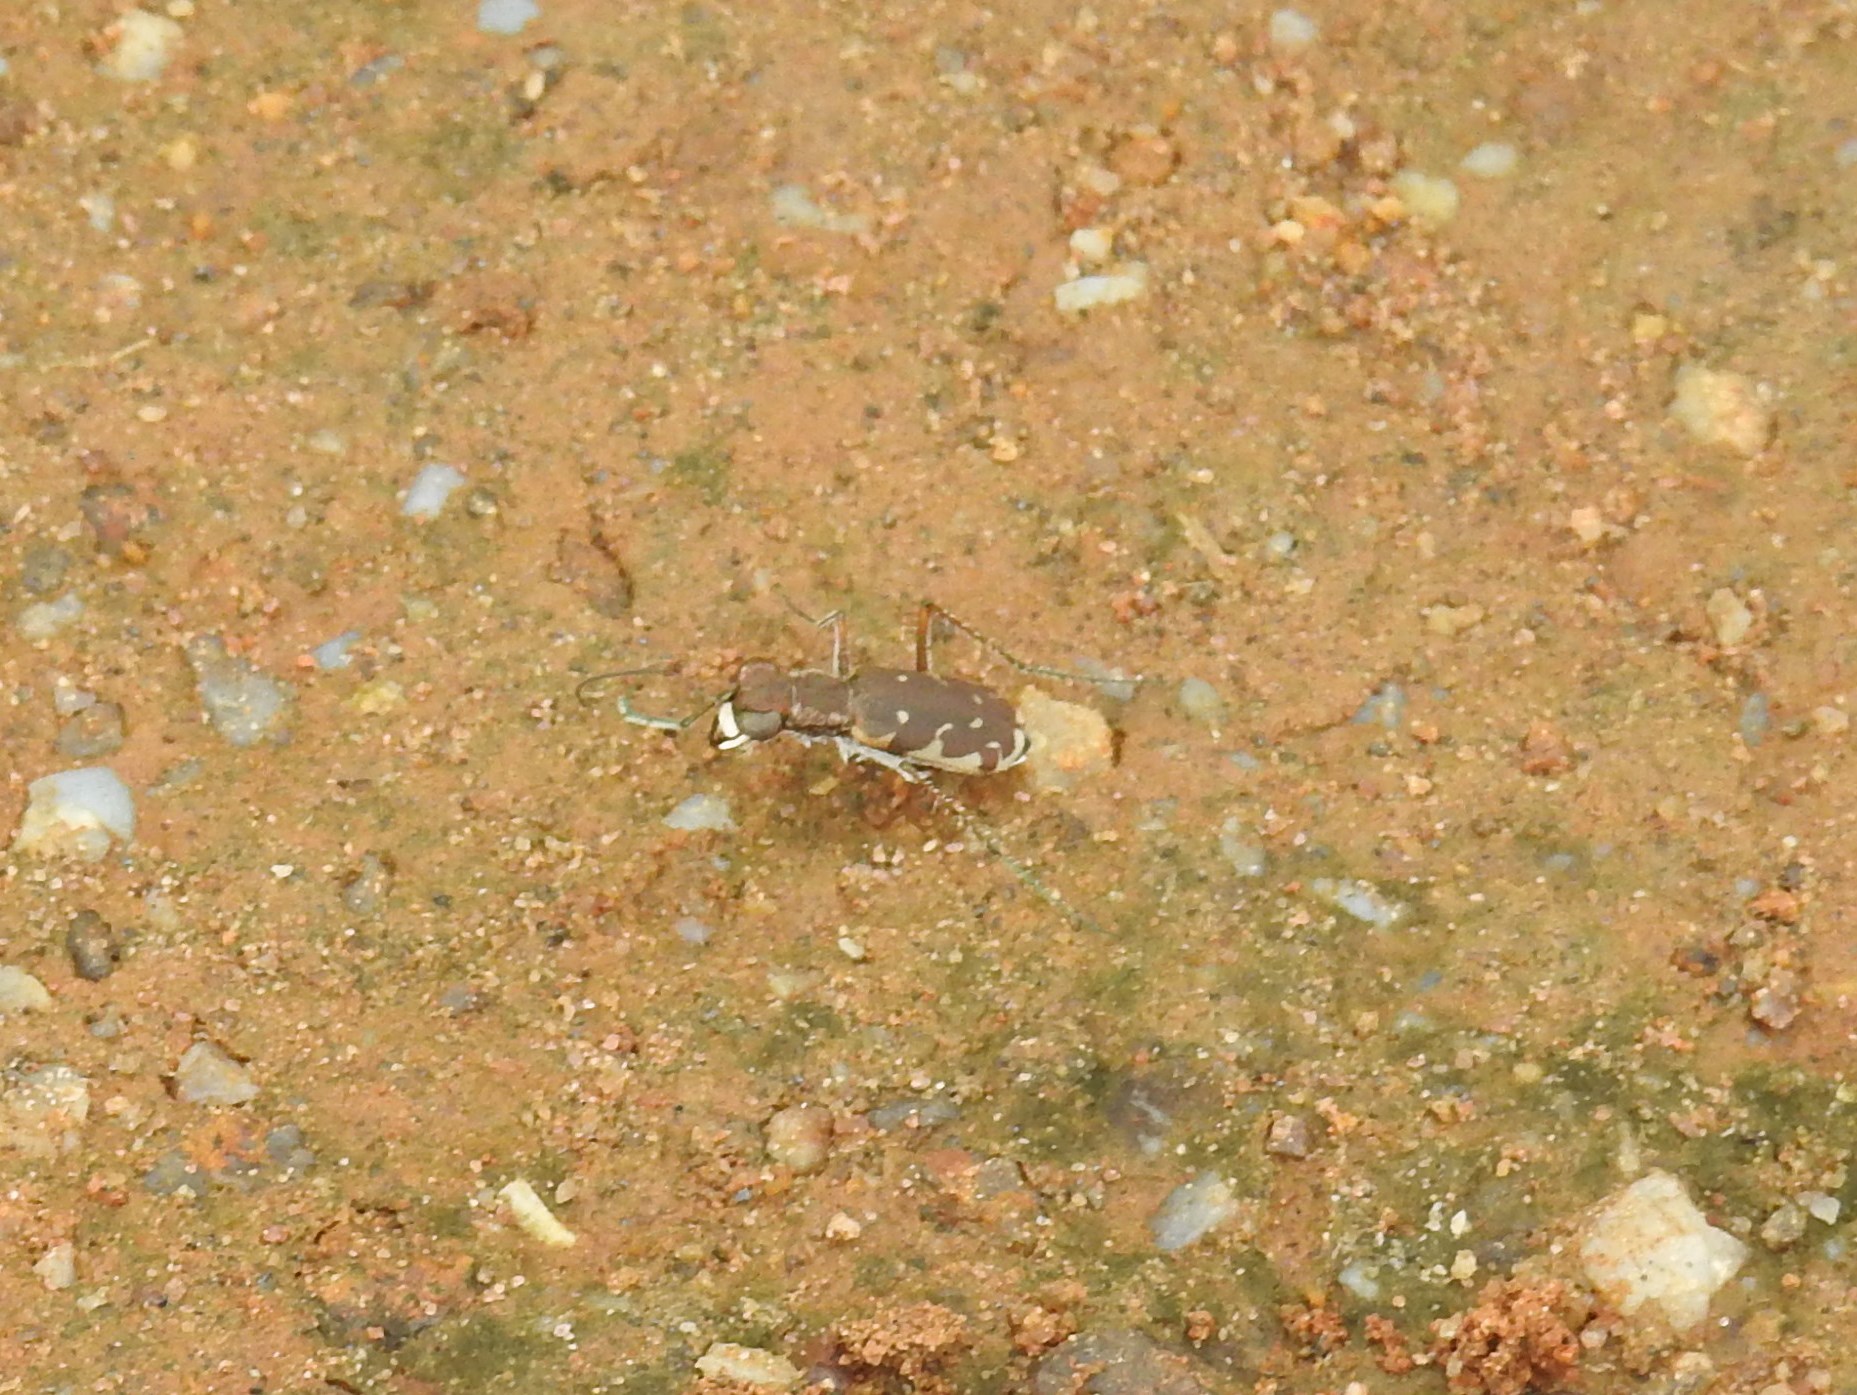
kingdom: Animalia
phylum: Arthropoda
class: Insecta
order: Coleoptera
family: Carabidae
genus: Myriochila
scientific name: Myriochila fastidiosa
